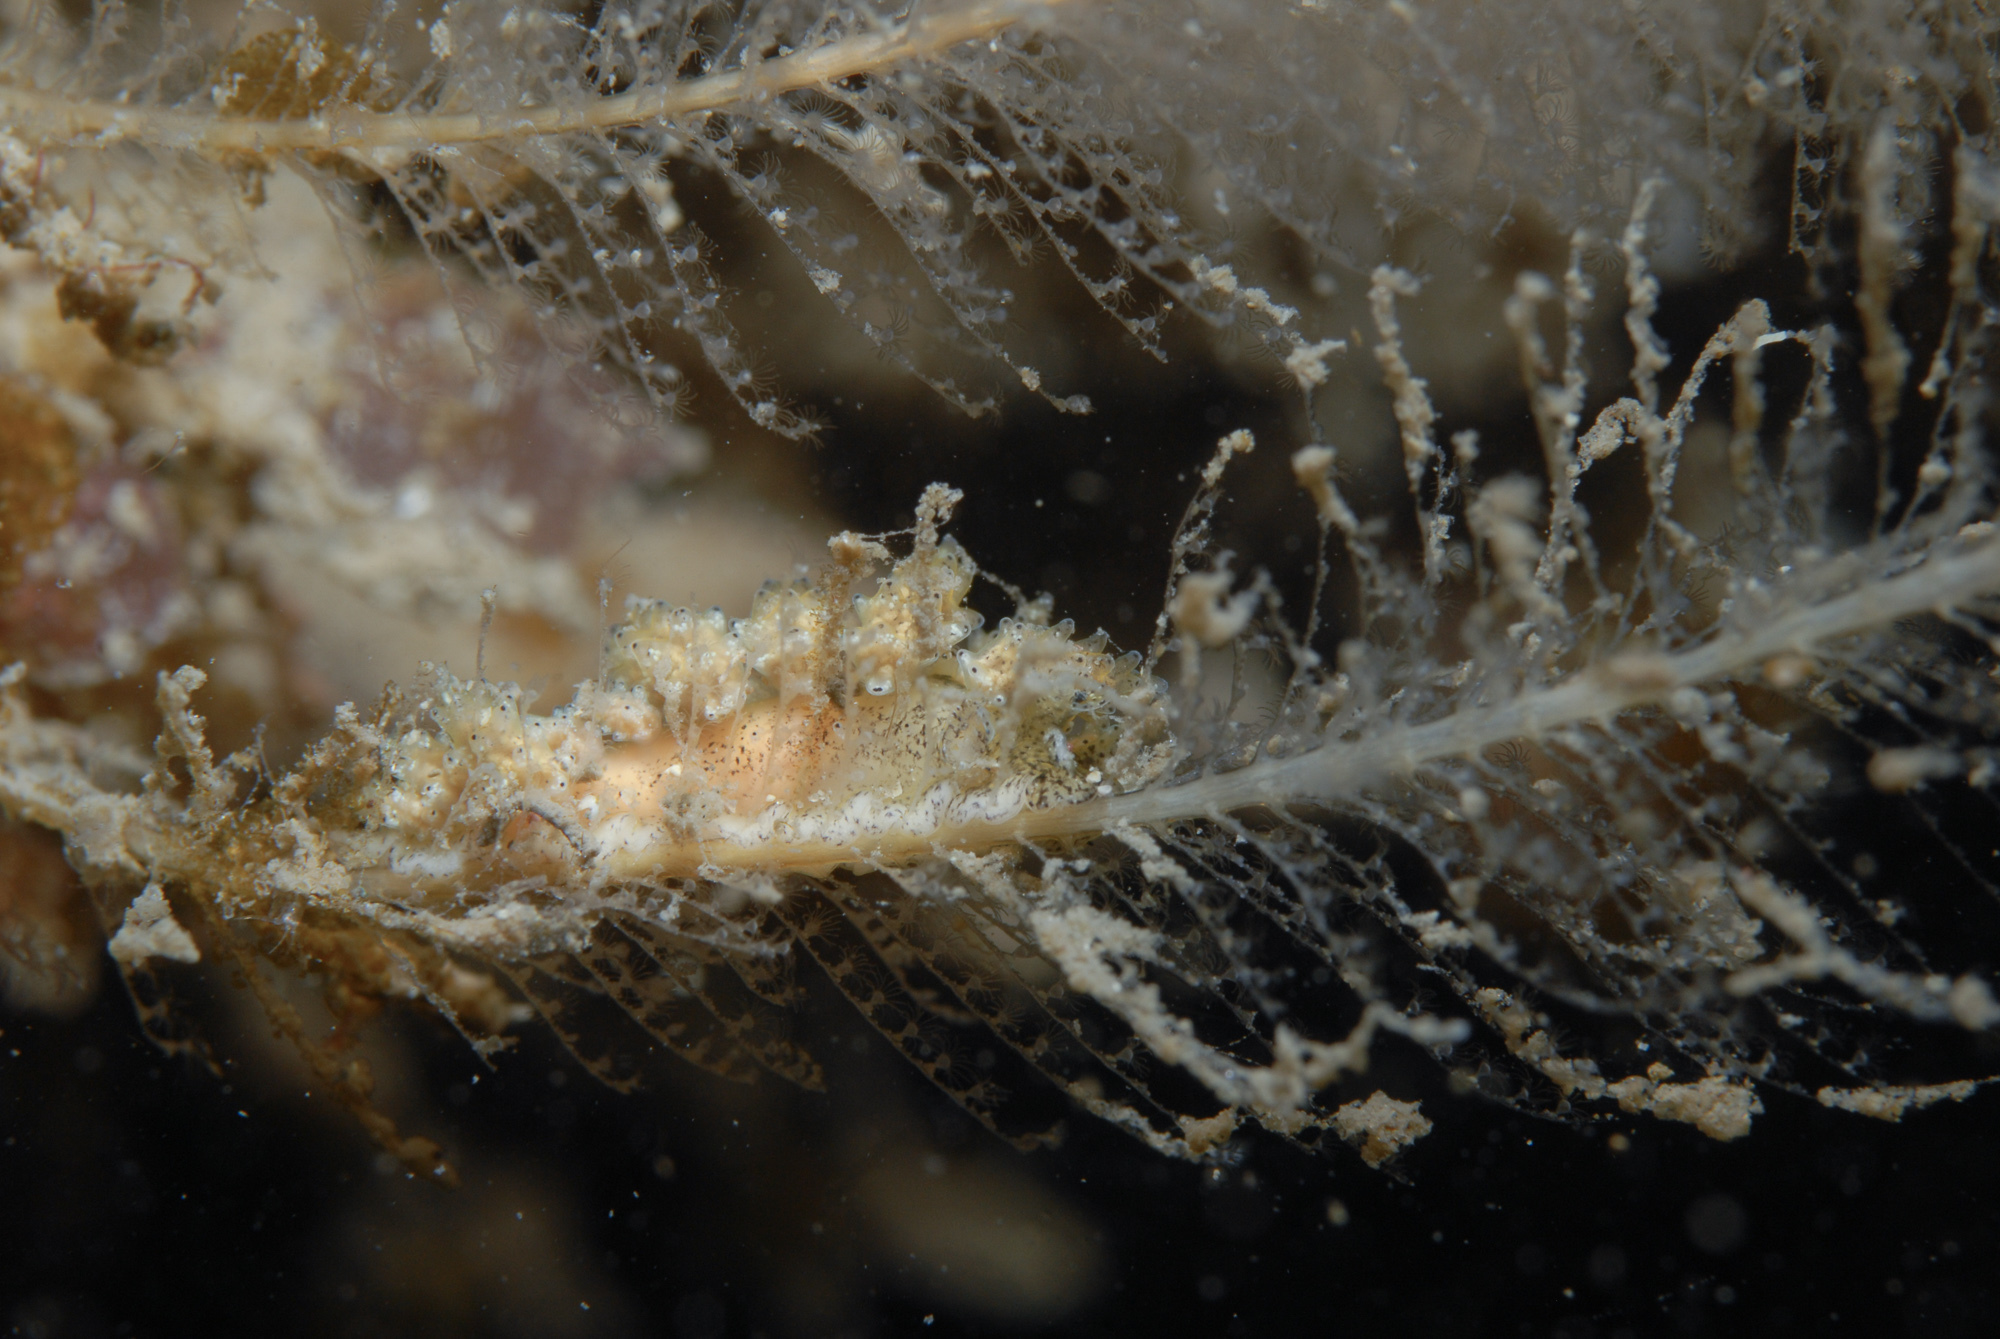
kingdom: Animalia
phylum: Mollusca
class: Gastropoda
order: Nudibranchia
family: Dotidae
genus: Doto
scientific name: Doto pinnatifida
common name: Feathered doto
